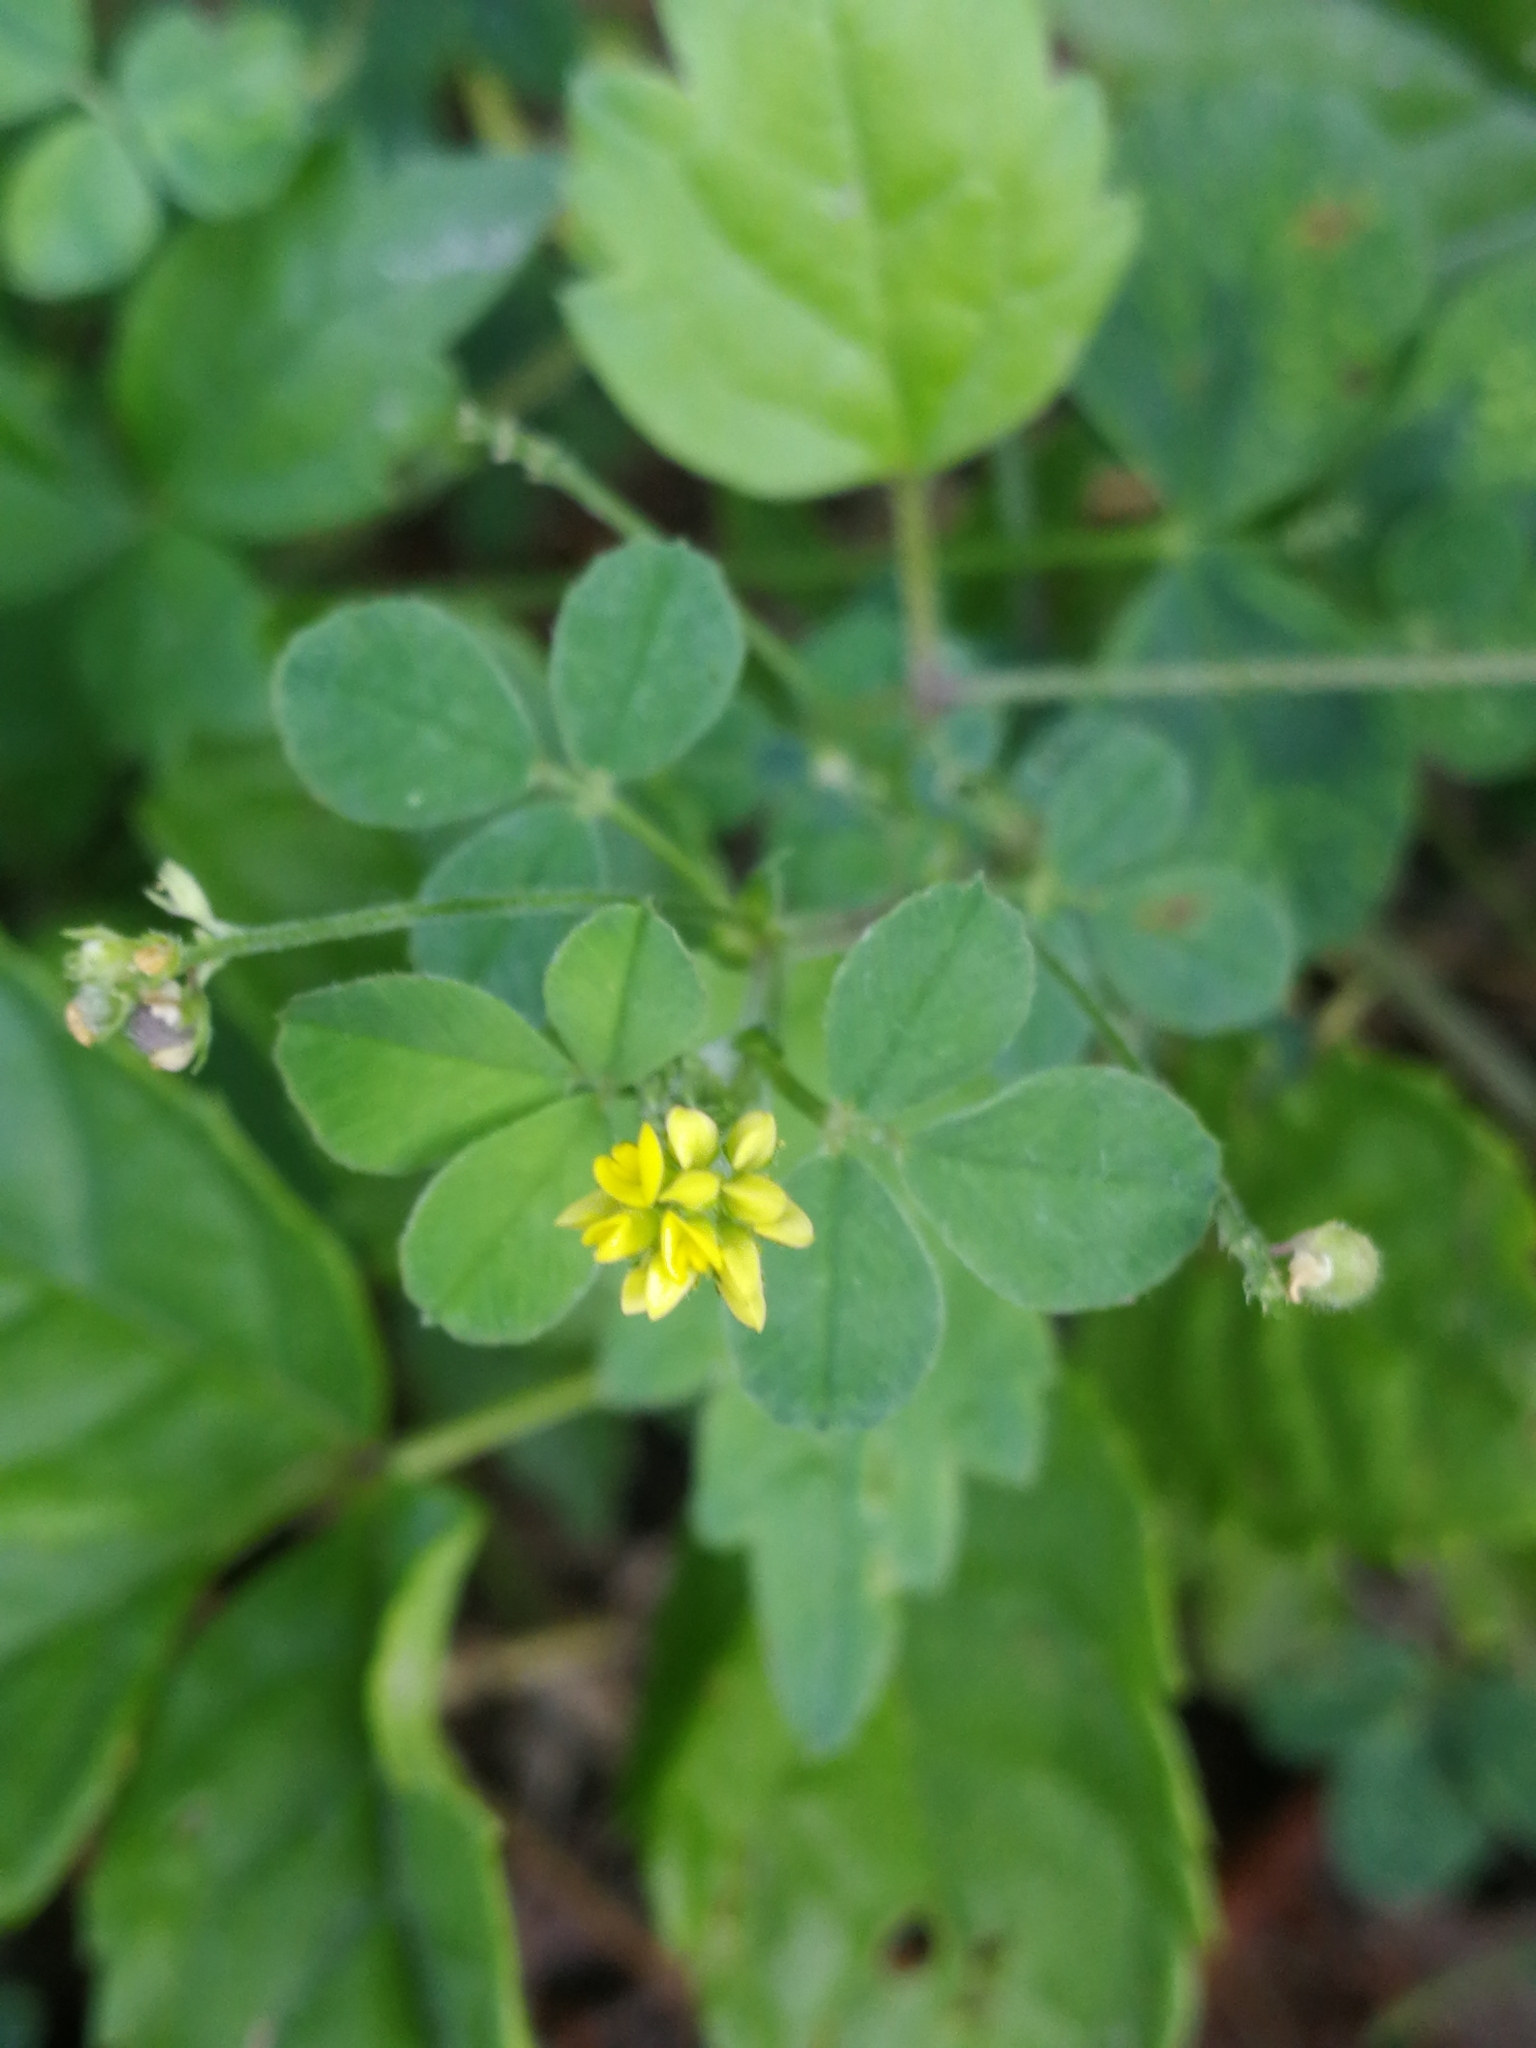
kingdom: Plantae
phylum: Tracheophyta
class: Magnoliopsida
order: Fabales
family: Fabaceae
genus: Medicago
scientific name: Medicago lupulina
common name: Black medick
